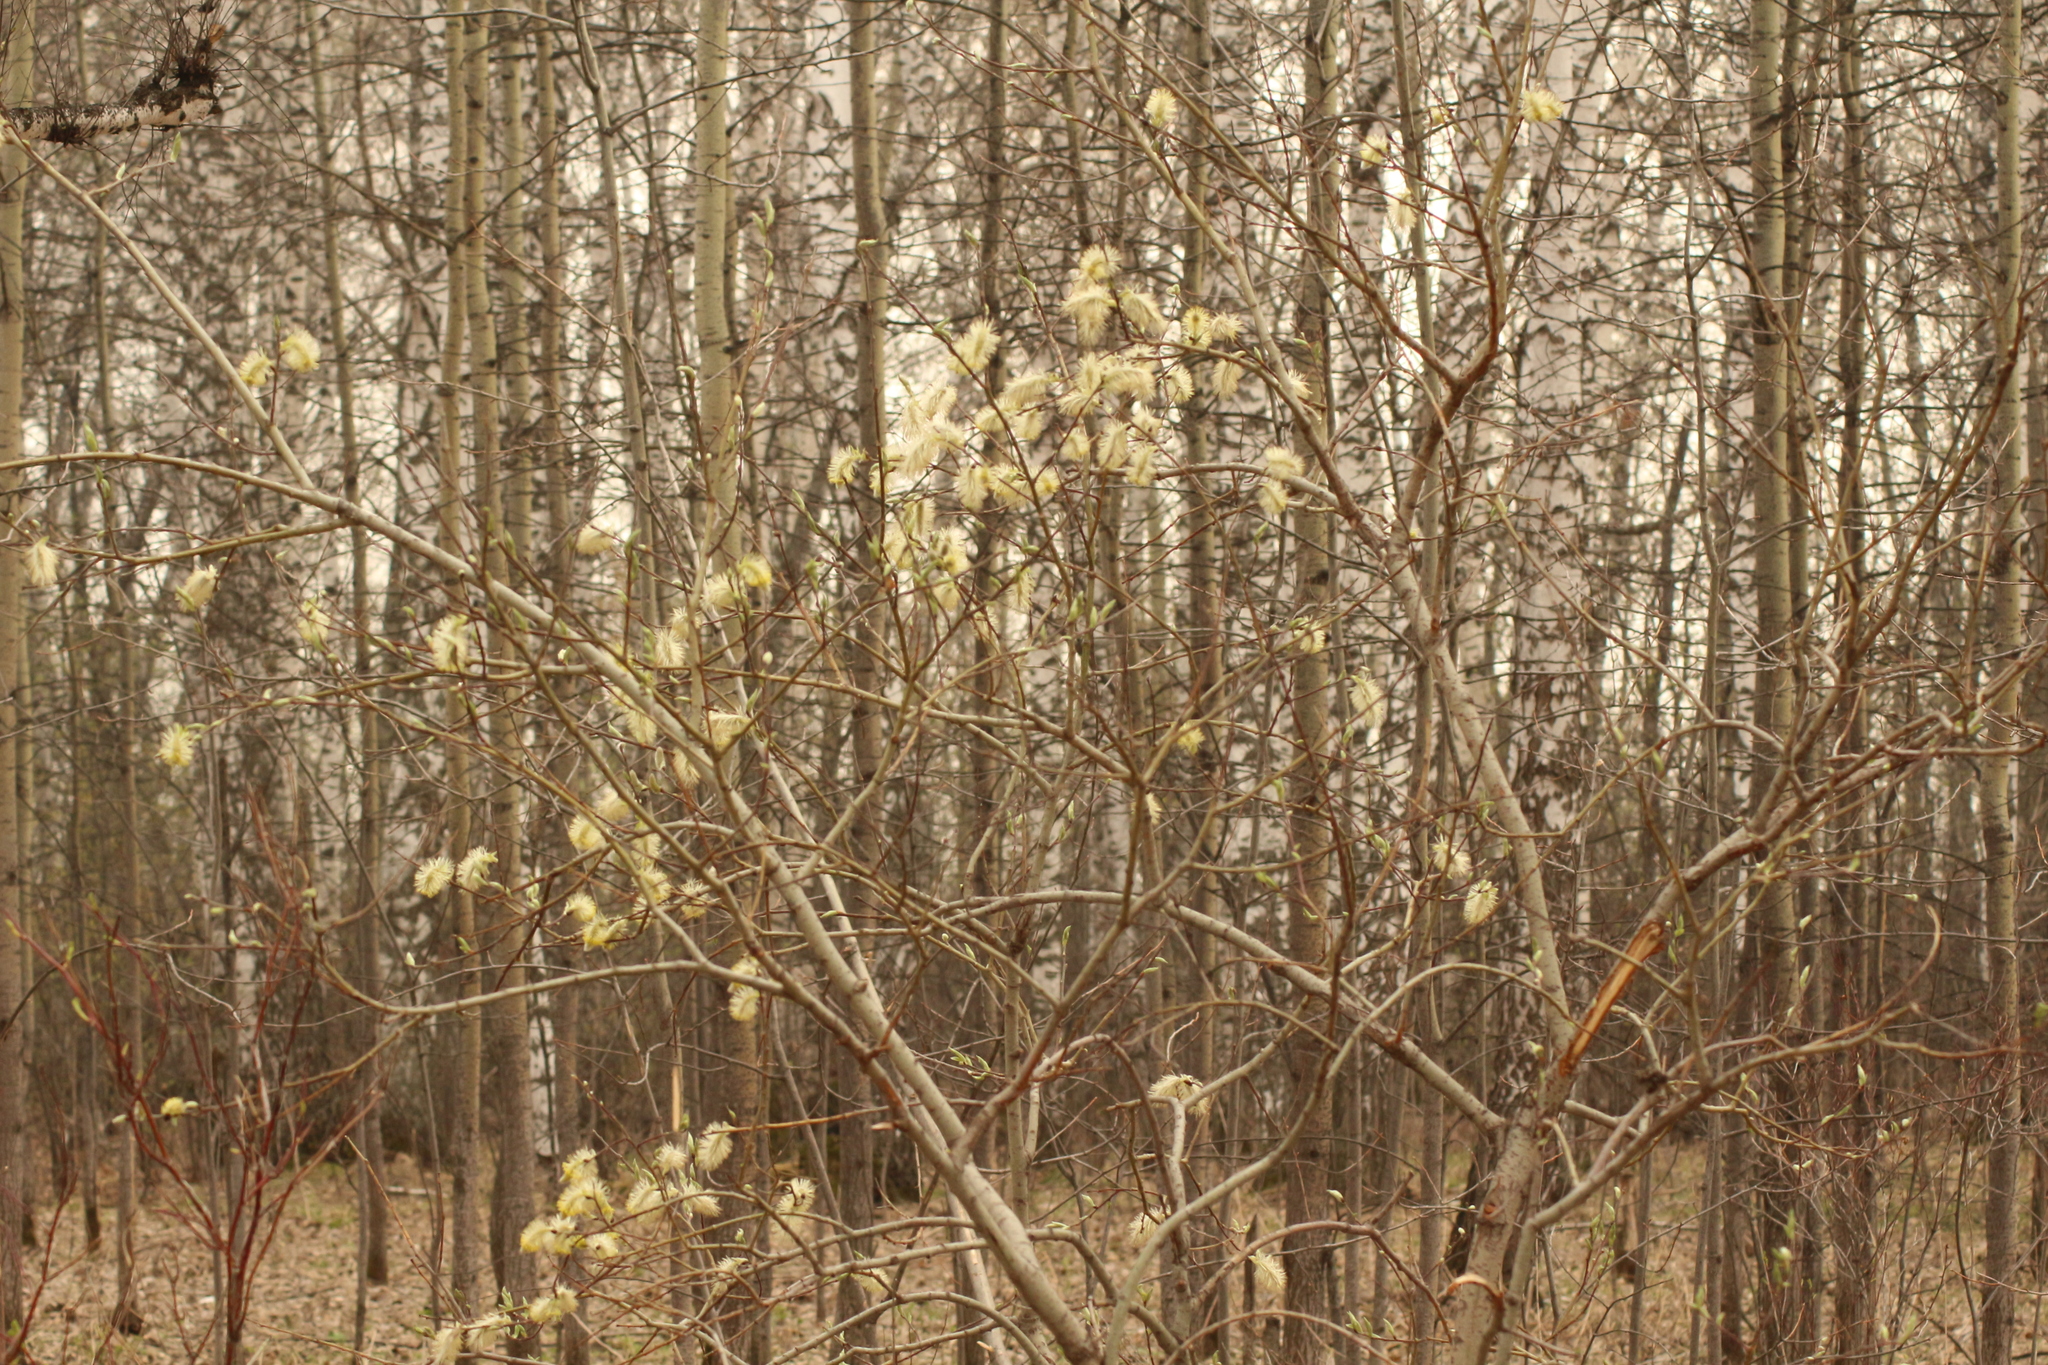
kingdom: Plantae
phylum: Tracheophyta
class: Magnoliopsida
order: Malpighiales
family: Salicaceae
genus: Salix
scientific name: Salix caprea
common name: Goat willow
